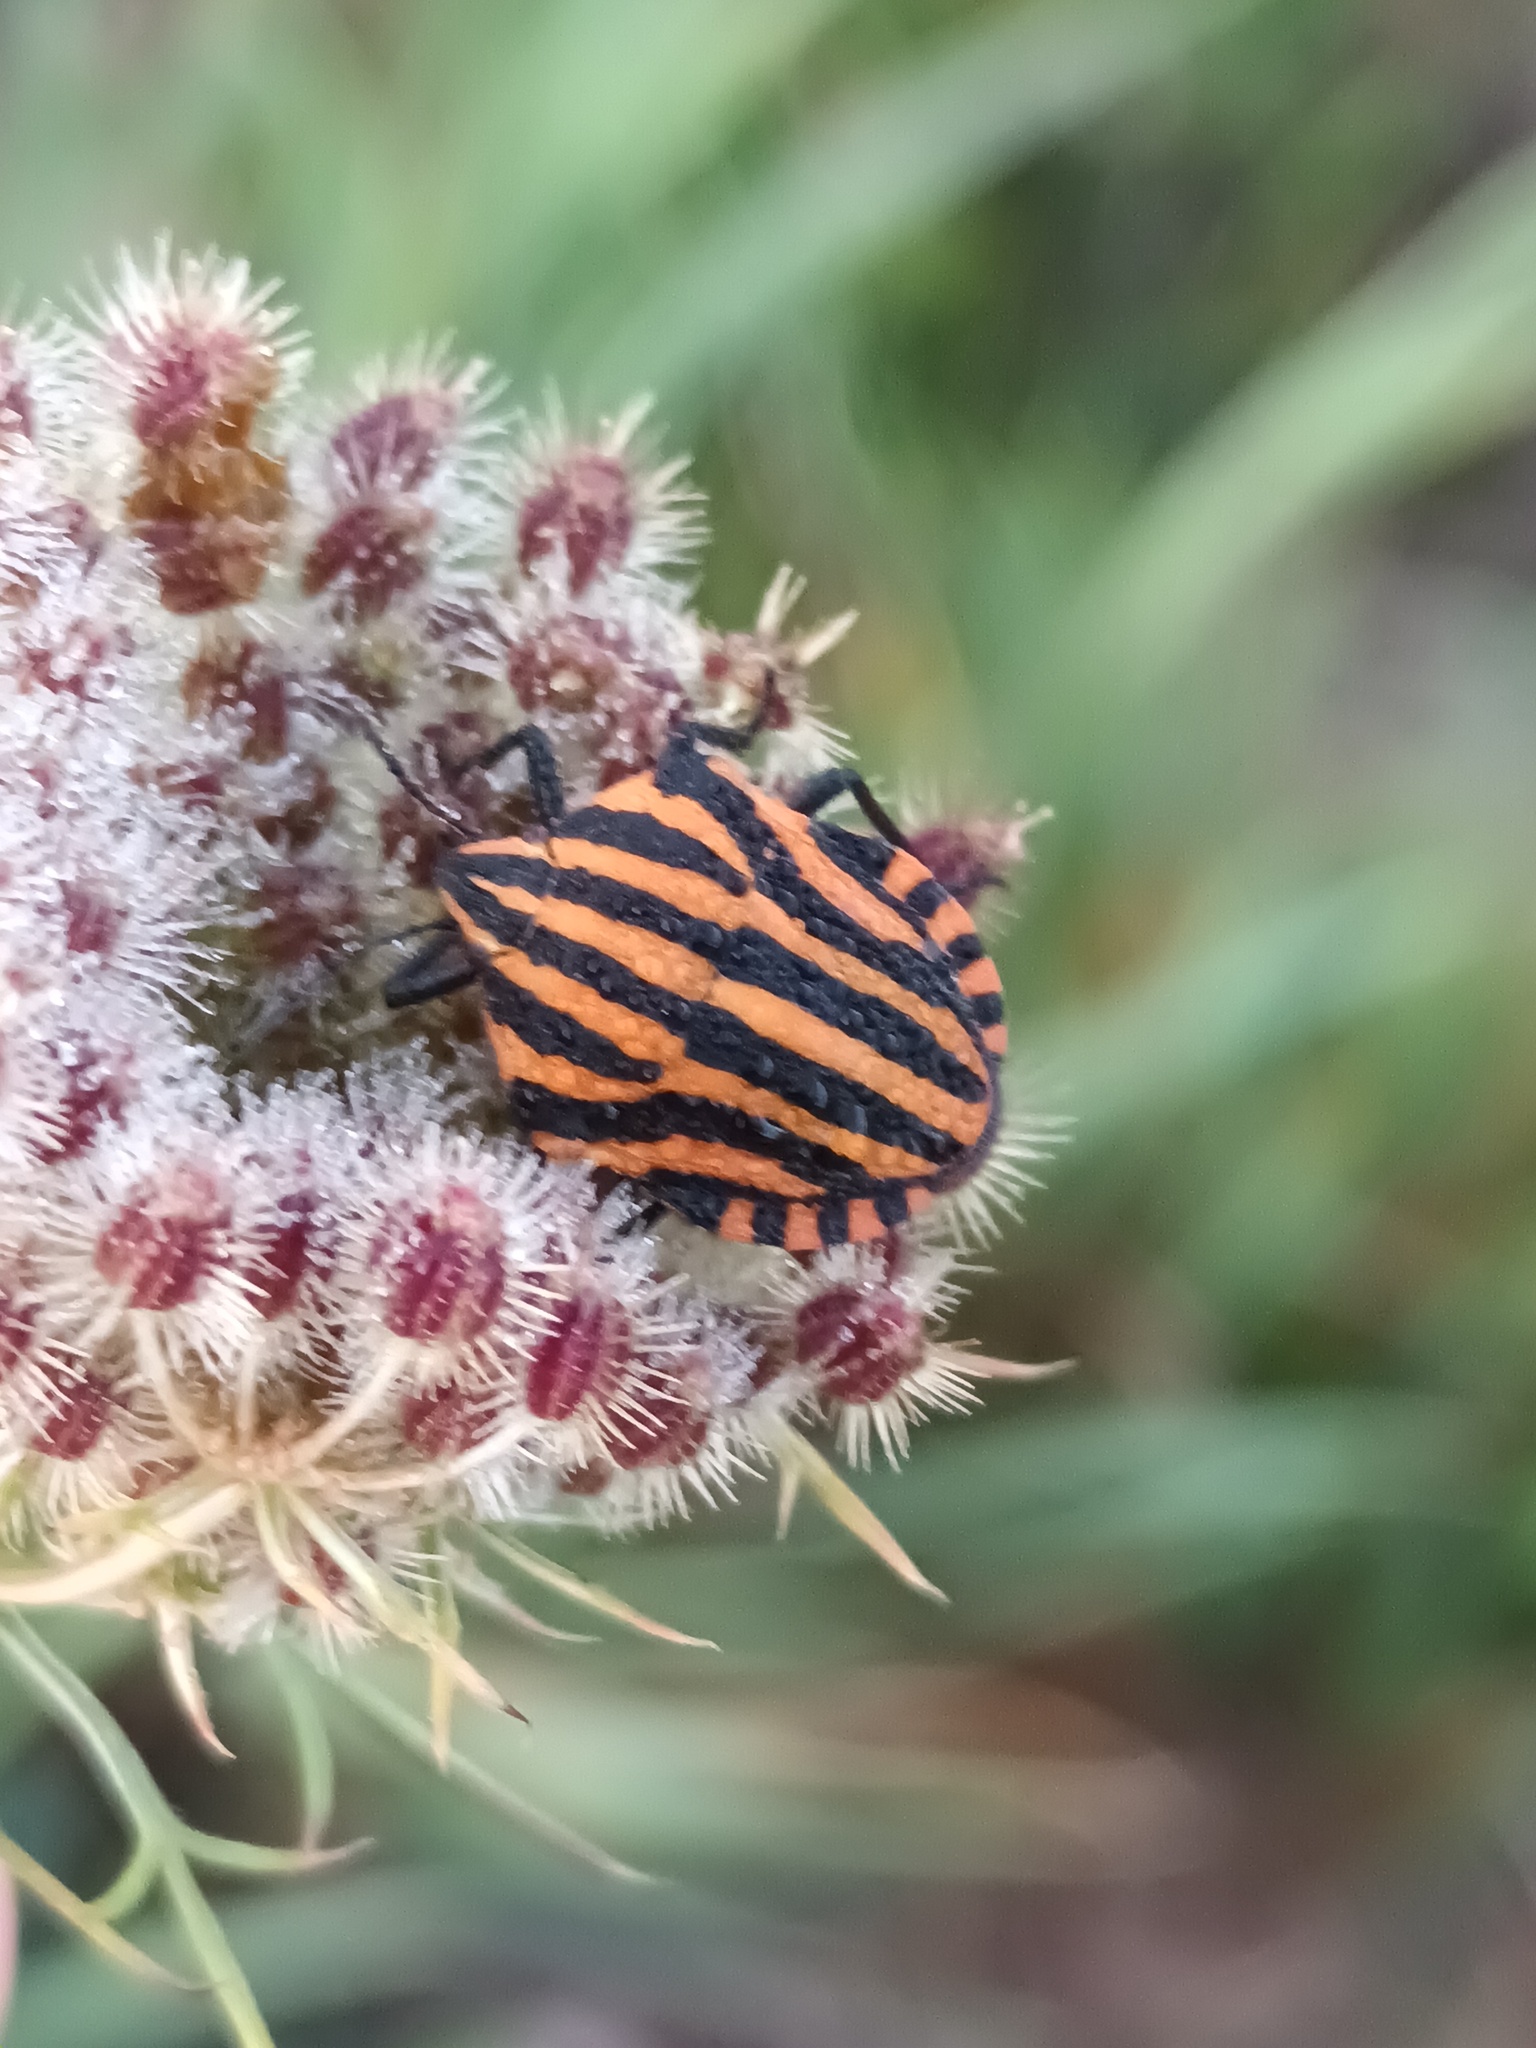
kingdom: Animalia
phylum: Arthropoda
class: Insecta
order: Hemiptera
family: Pentatomidae
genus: Graphosoma
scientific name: Graphosoma italicum
